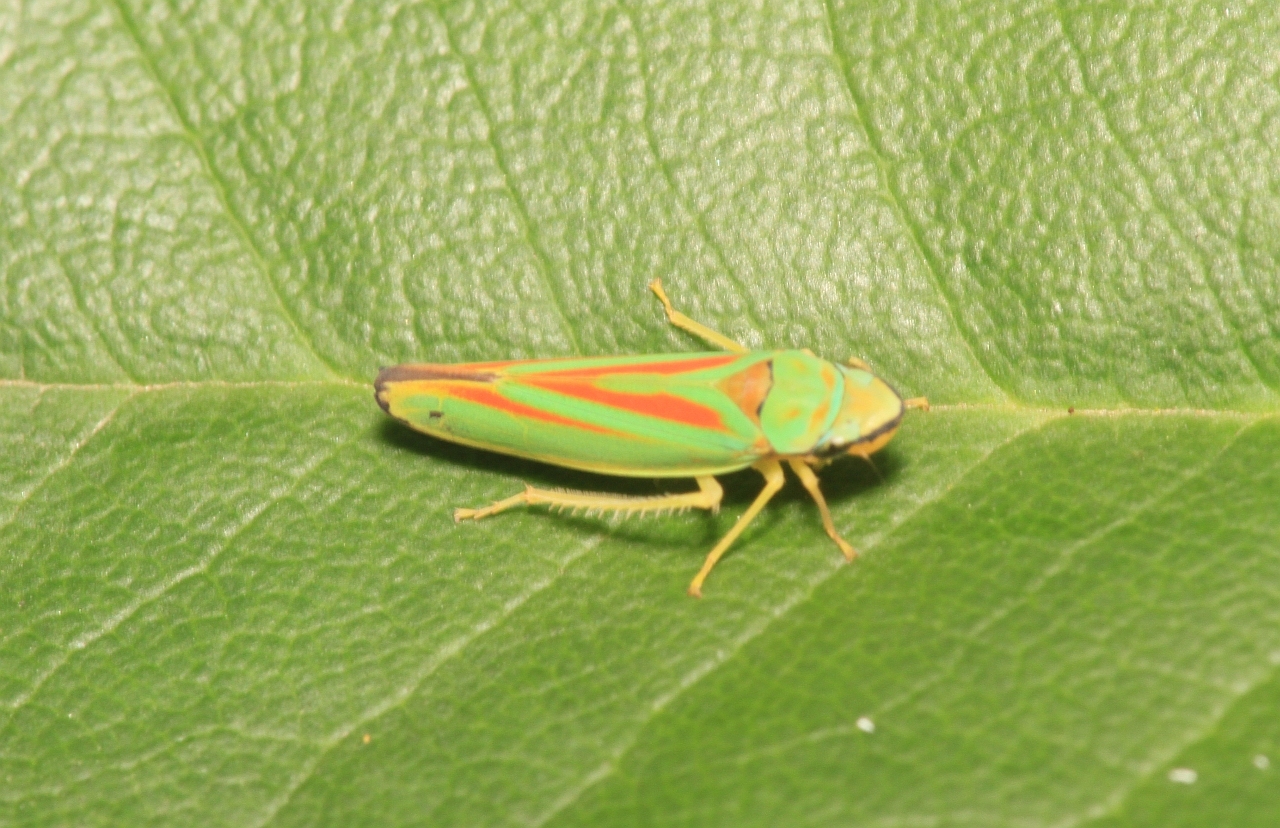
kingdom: Animalia
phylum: Arthropoda
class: Insecta
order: Hemiptera
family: Cicadellidae
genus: Graphocephala
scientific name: Graphocephala fennahi
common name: Rhododendron leafhopper
